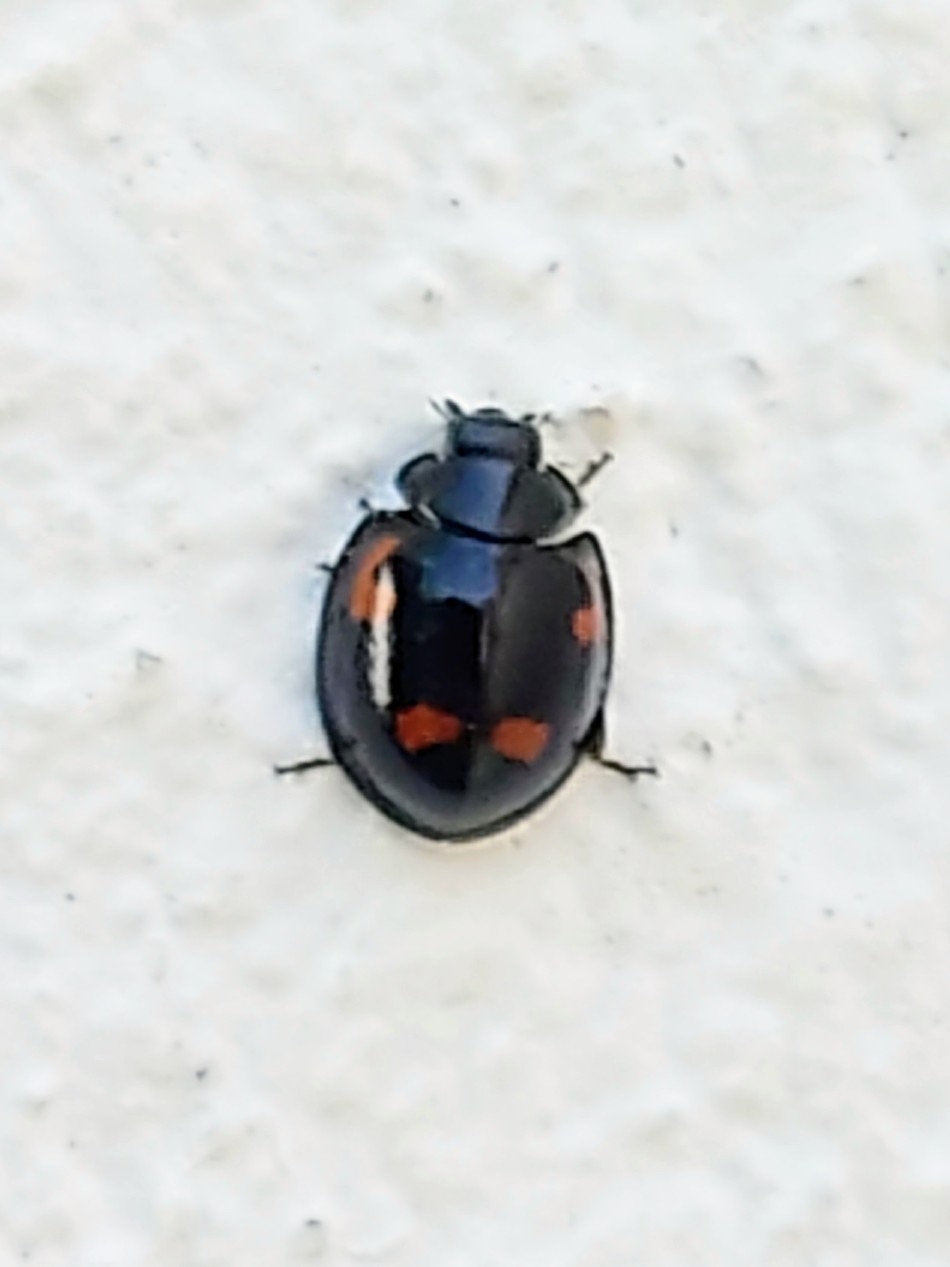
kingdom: Animalia
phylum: Arthropoda
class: Insecta
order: Coleoptera
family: Coccinellidae
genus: Brumus
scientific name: Brumus quadripustulatus
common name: Ladybird beetle
